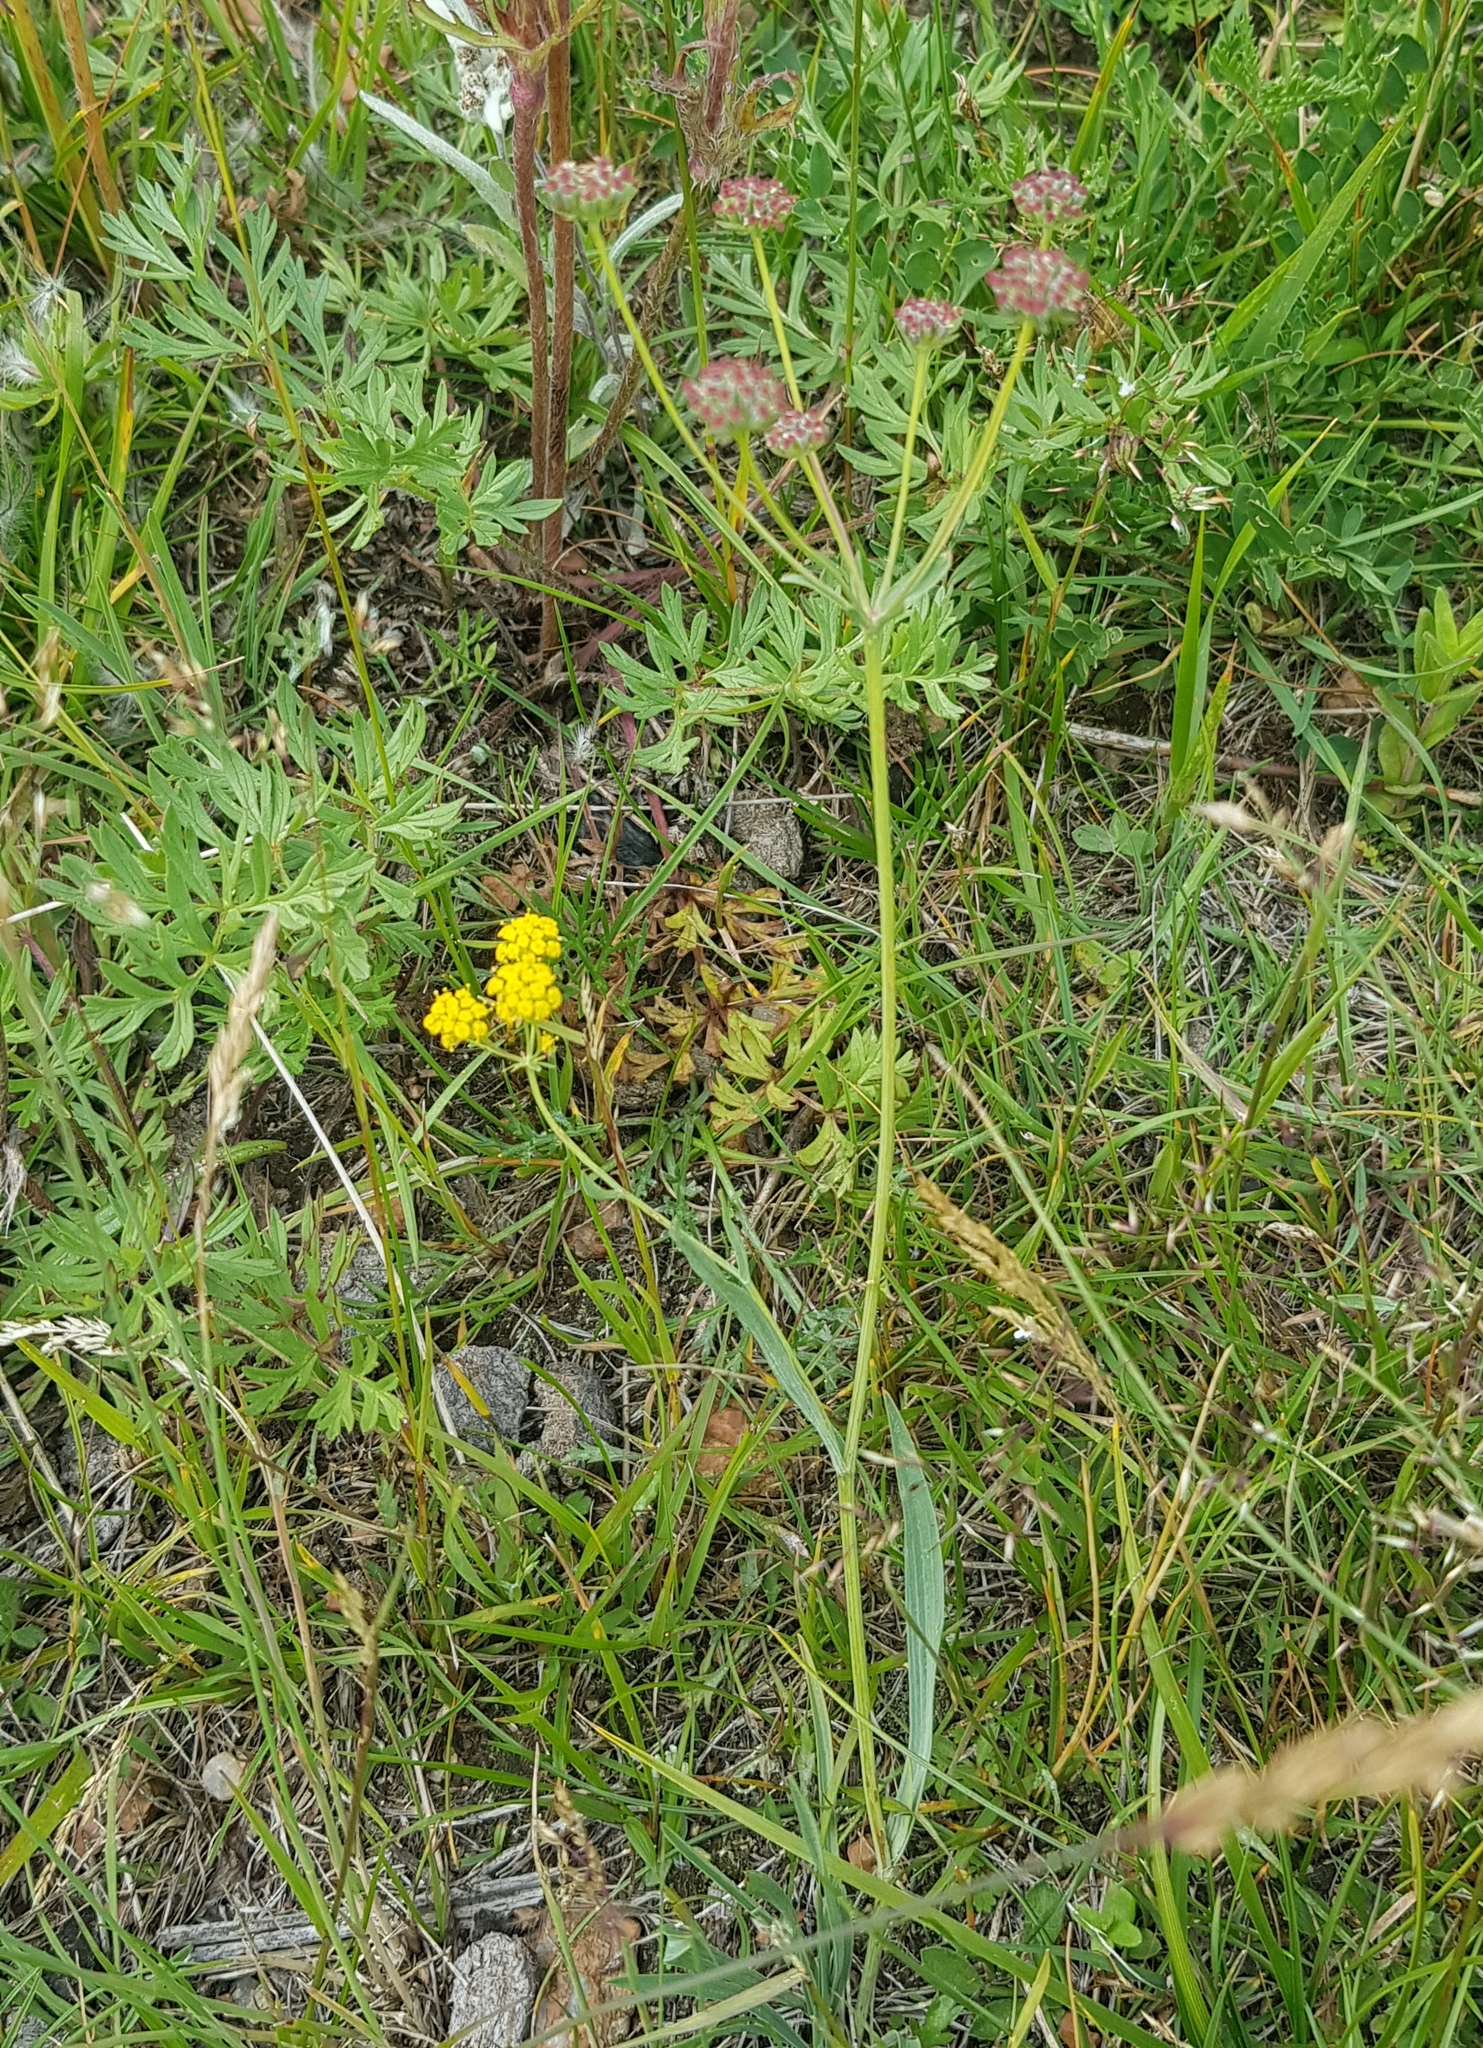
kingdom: Plantae
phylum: Tracheophyta
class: Magnoliopsida
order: Apiales
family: Apiaceae
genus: Bupleurum
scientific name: Bupleurum bicaule
